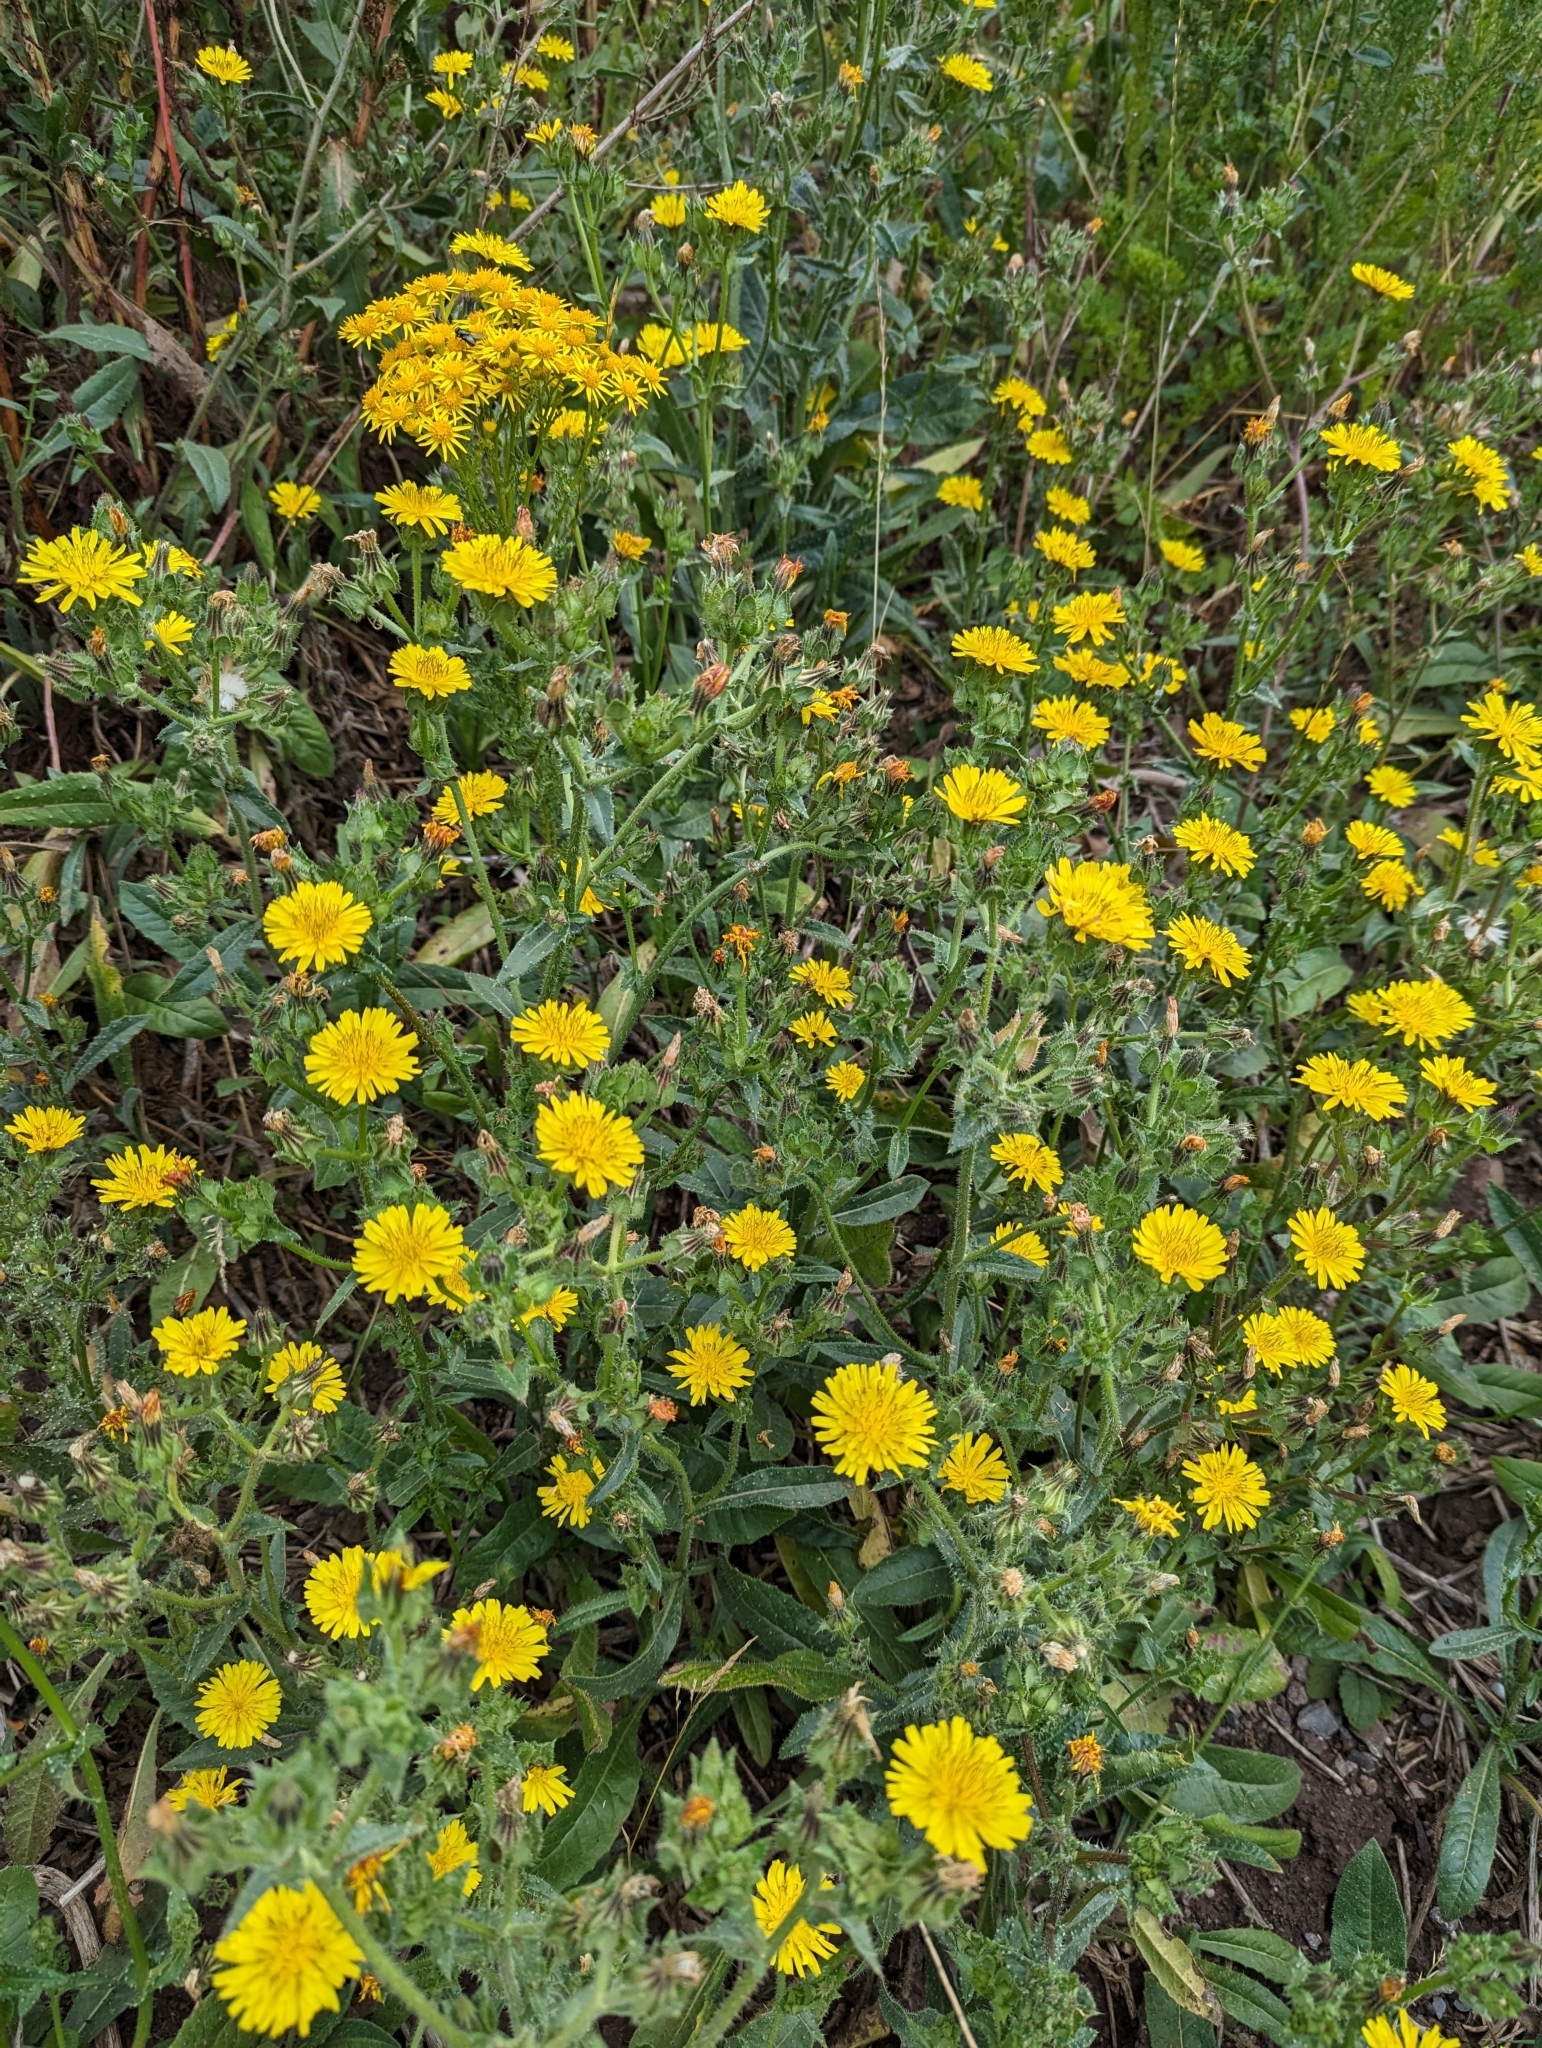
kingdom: Plantae
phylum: Tracheophyta
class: Magnoliopsida
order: Asterales
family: Asteraceae
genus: Helminthotheca
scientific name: Helminthotheca echioides
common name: Ox-tongue
